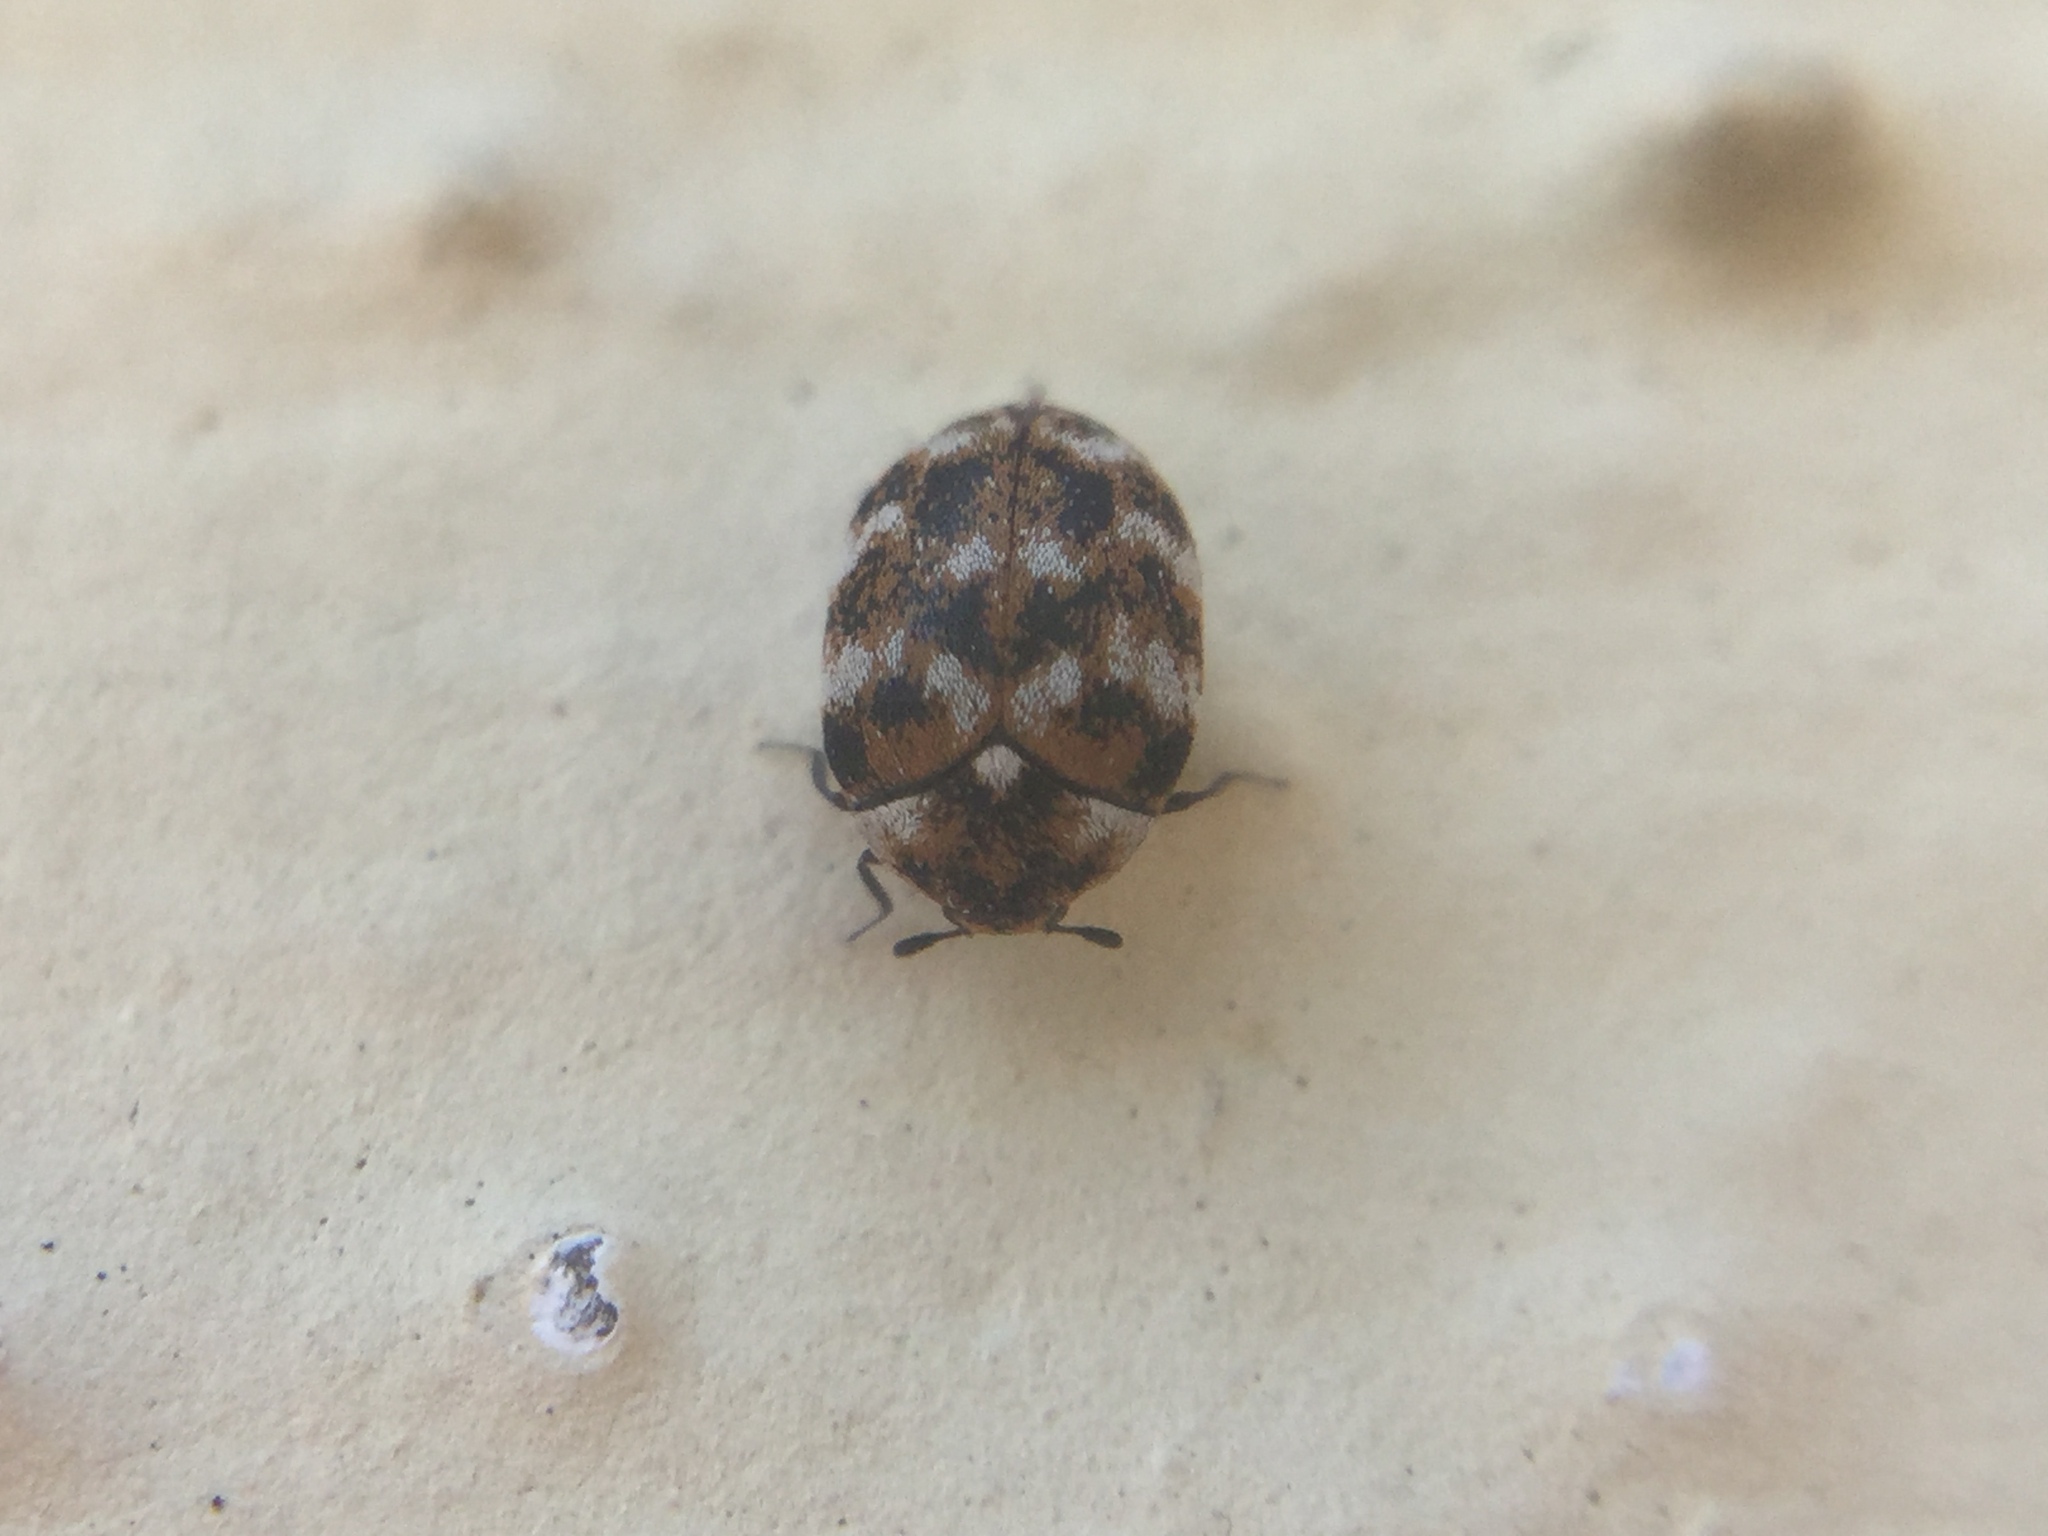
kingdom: Animalia
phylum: Arthropoda
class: Insecta
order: Coleoptera
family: Dermestidae
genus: Anthrenus
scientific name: Anthrenus verbasci
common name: Varied carpet beetle
